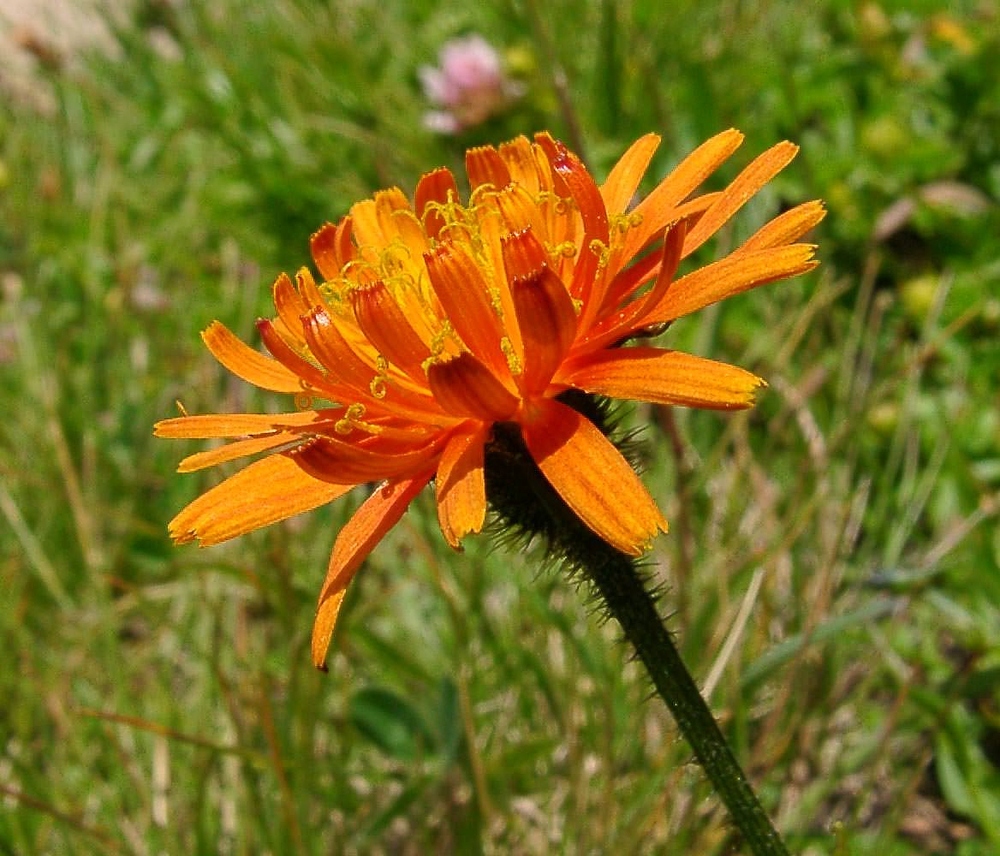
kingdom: Plantae
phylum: Tracheophyta
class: Magnoliopsida
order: Asterales
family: Asteraceae
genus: Crepis
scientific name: Crepis aurea
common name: Golden hawk's-beard
